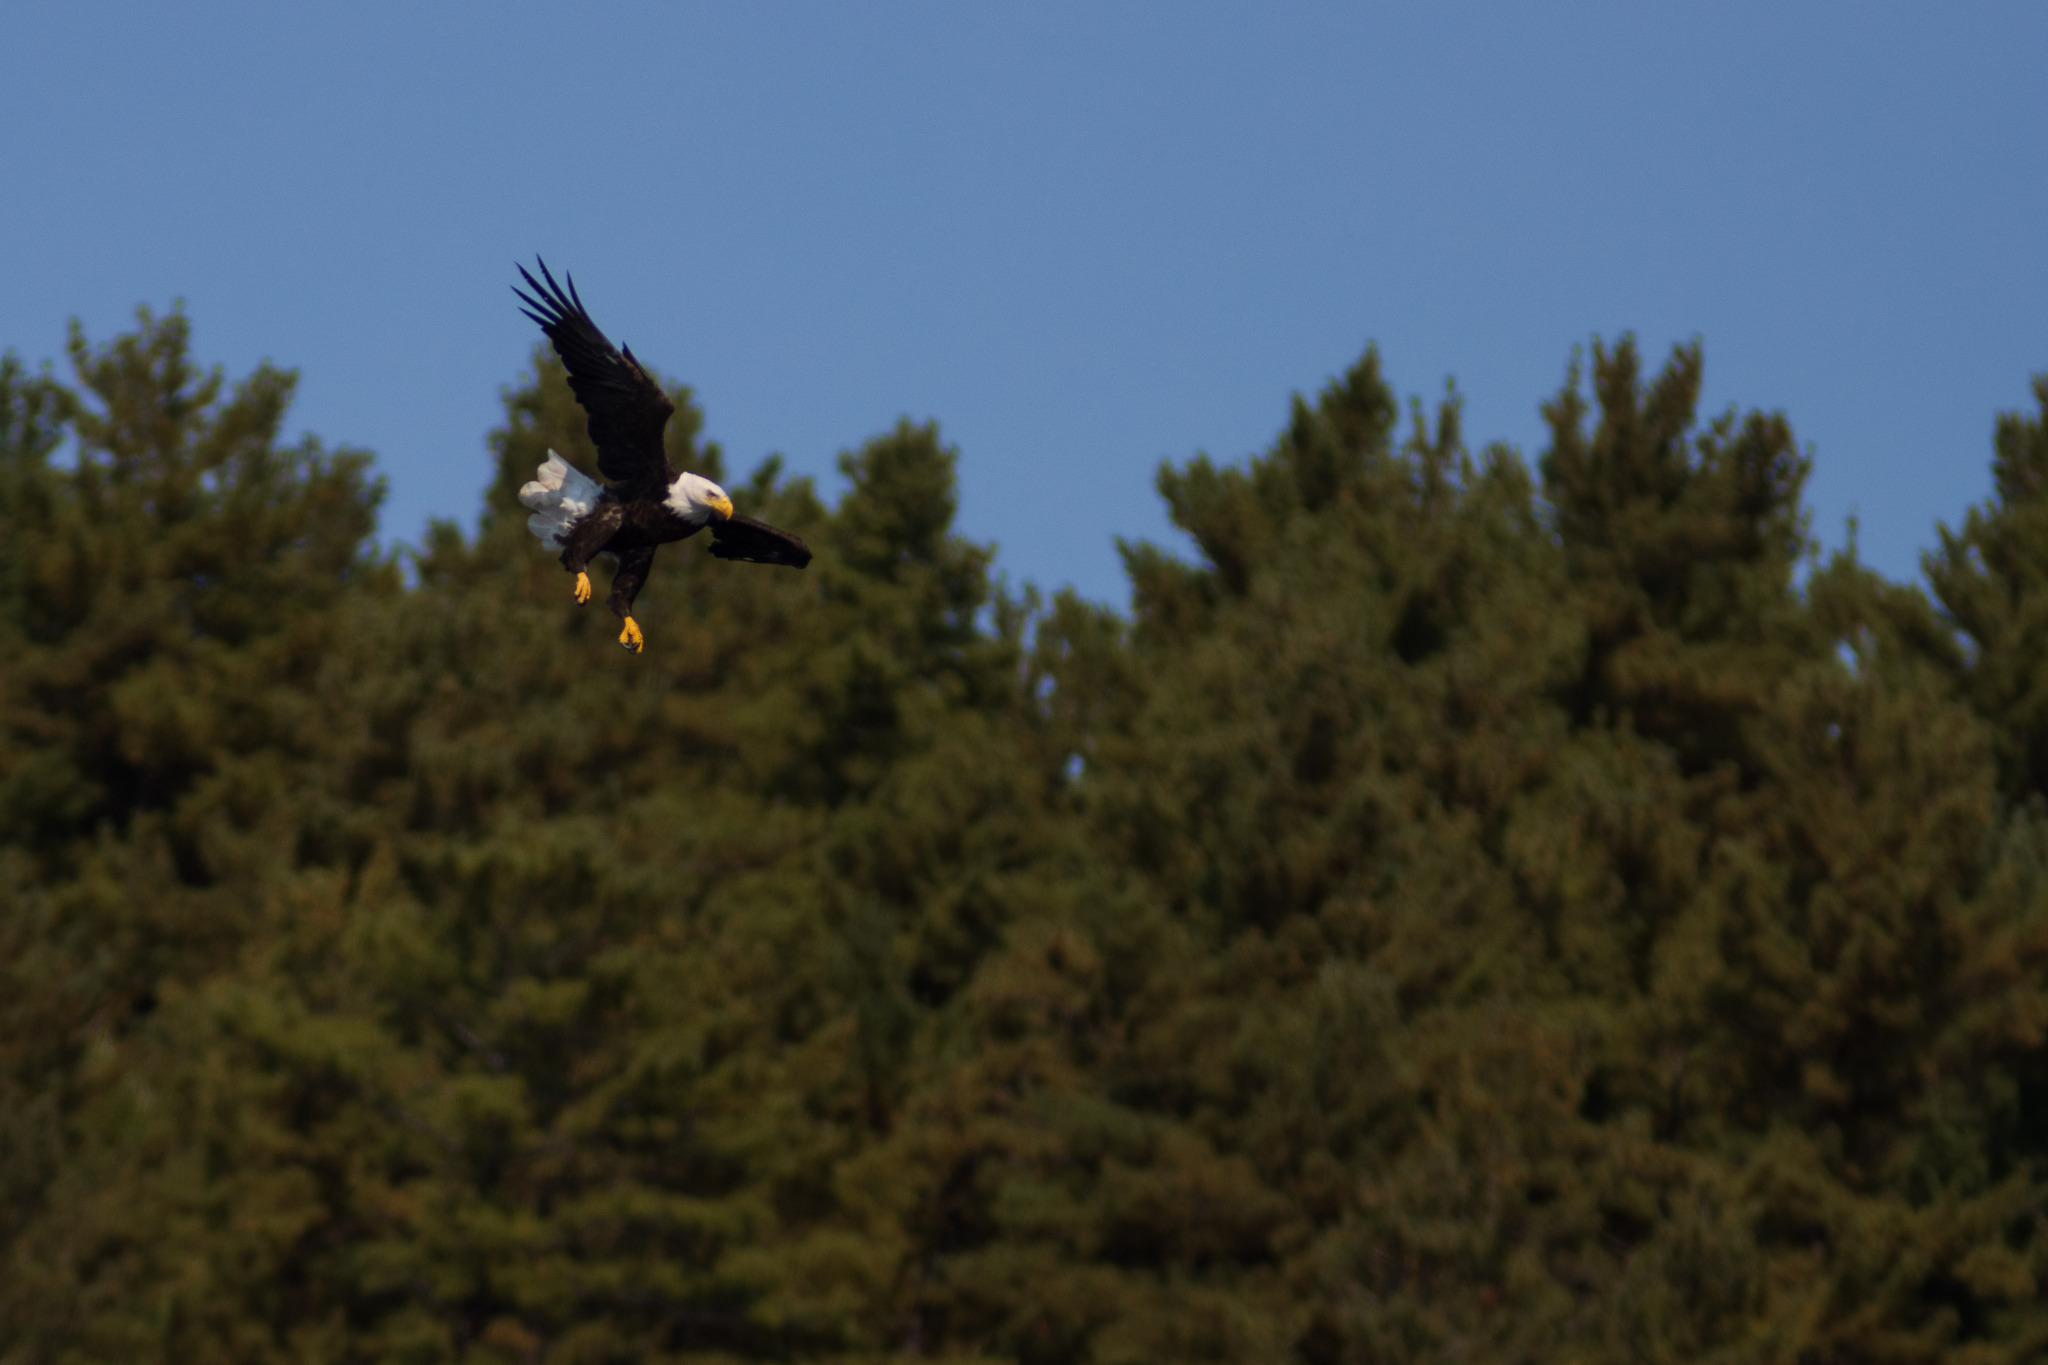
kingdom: Animalia
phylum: Chordata
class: Aves
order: Accipitriformes
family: Accipitridae
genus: Haliaeetus
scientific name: Haliaeetus leucocephalus
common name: Bald eagle
